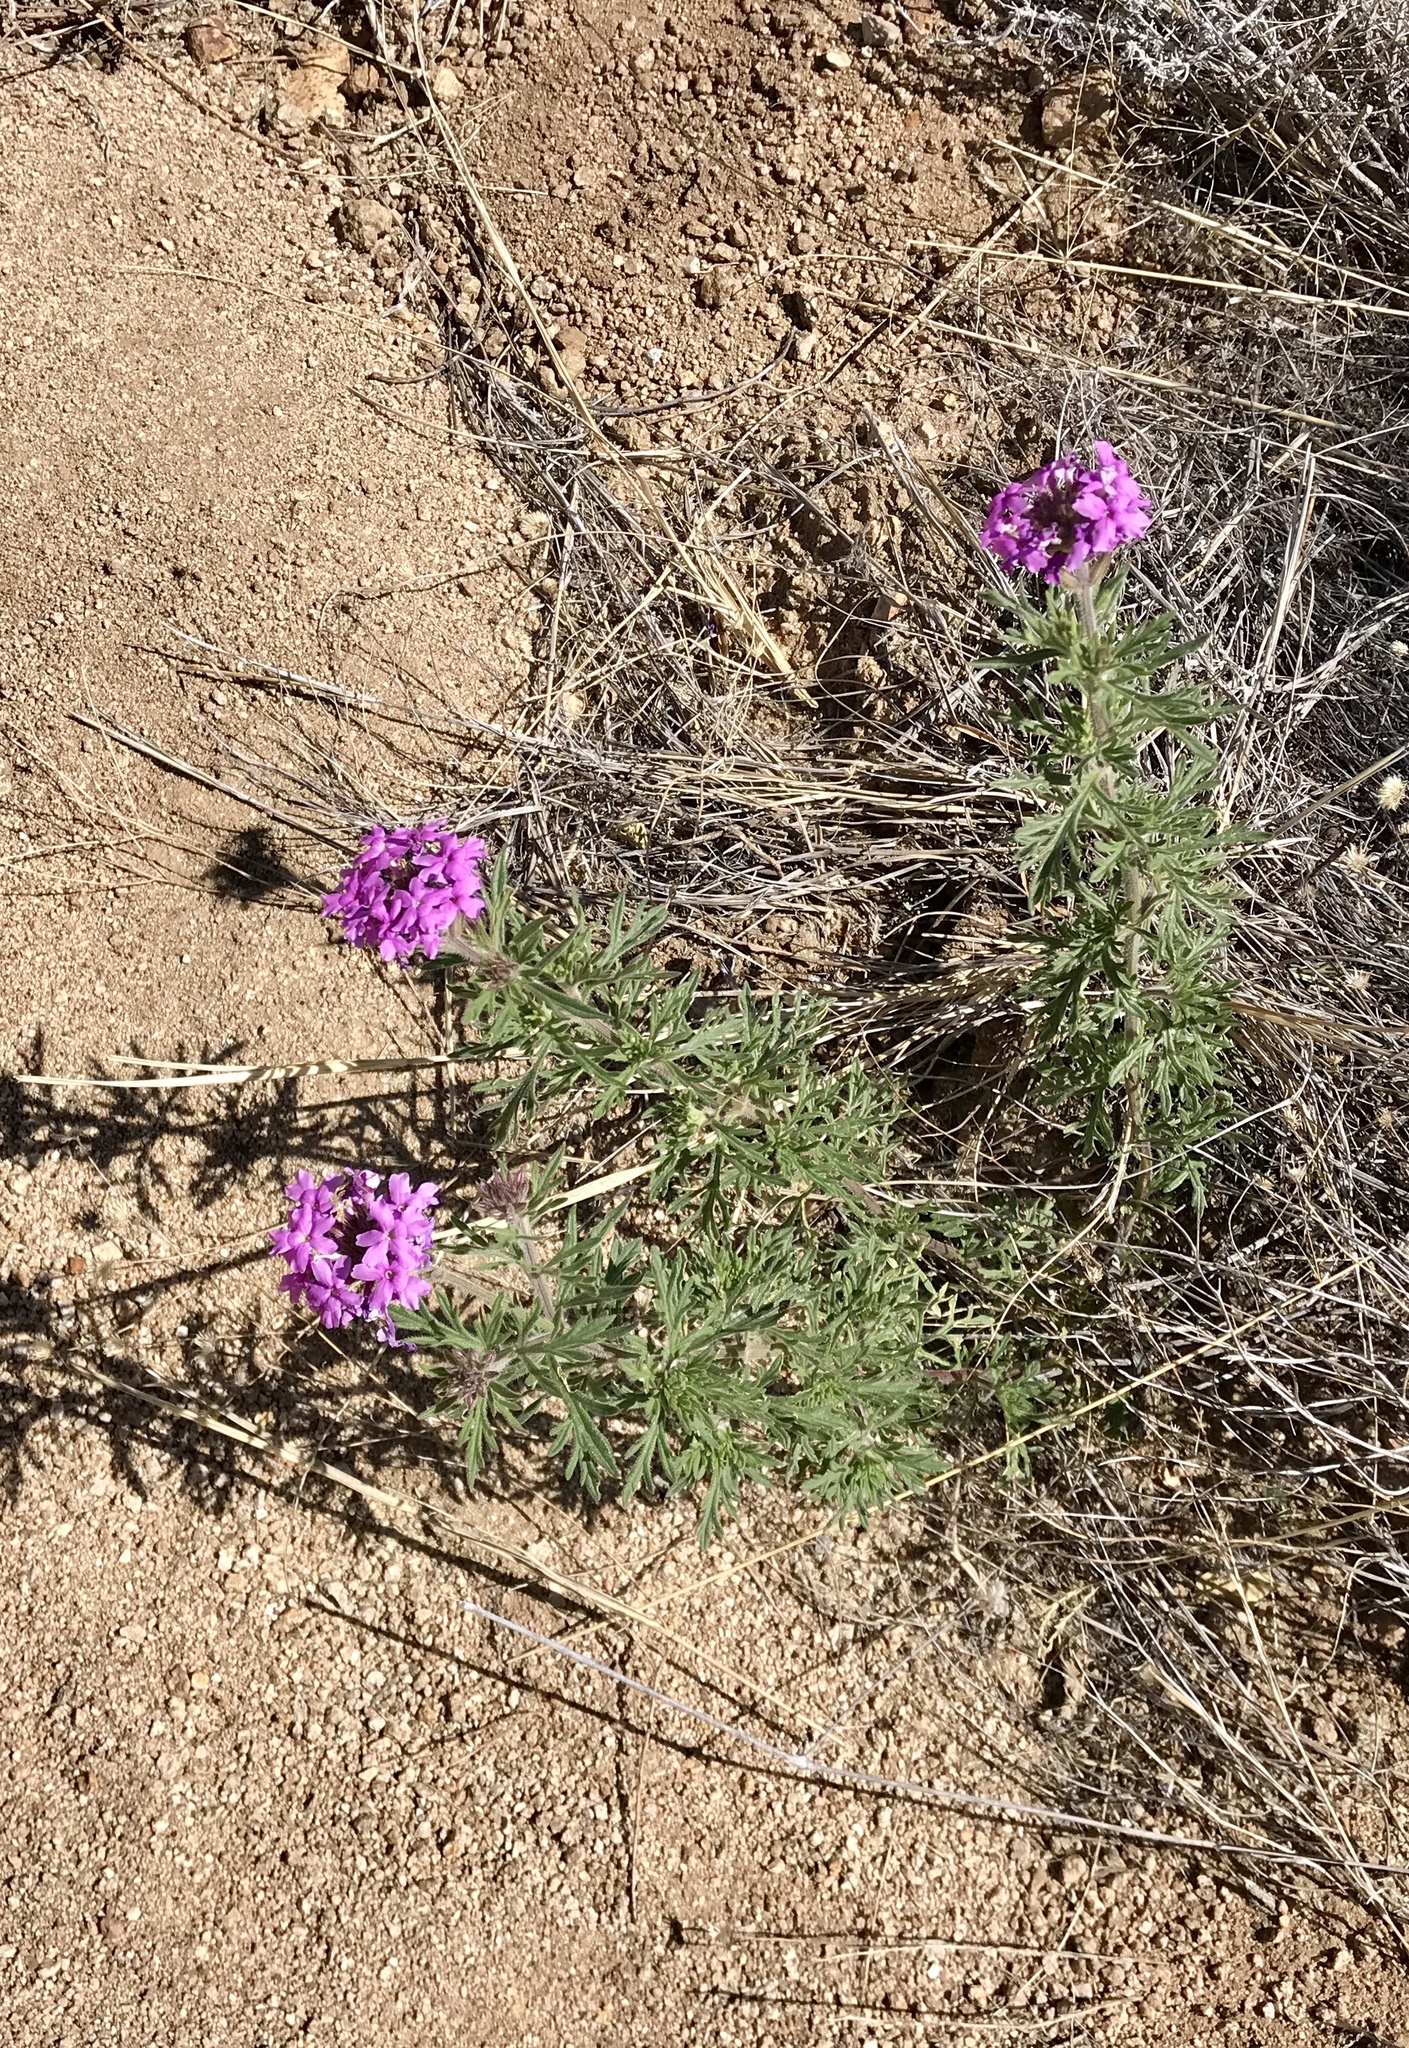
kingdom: Plantae
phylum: Tracheophyta
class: Magnoliopsida
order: Lamiales
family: Verbenaceae
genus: Verbena
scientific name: Verbena bipinnatifida
